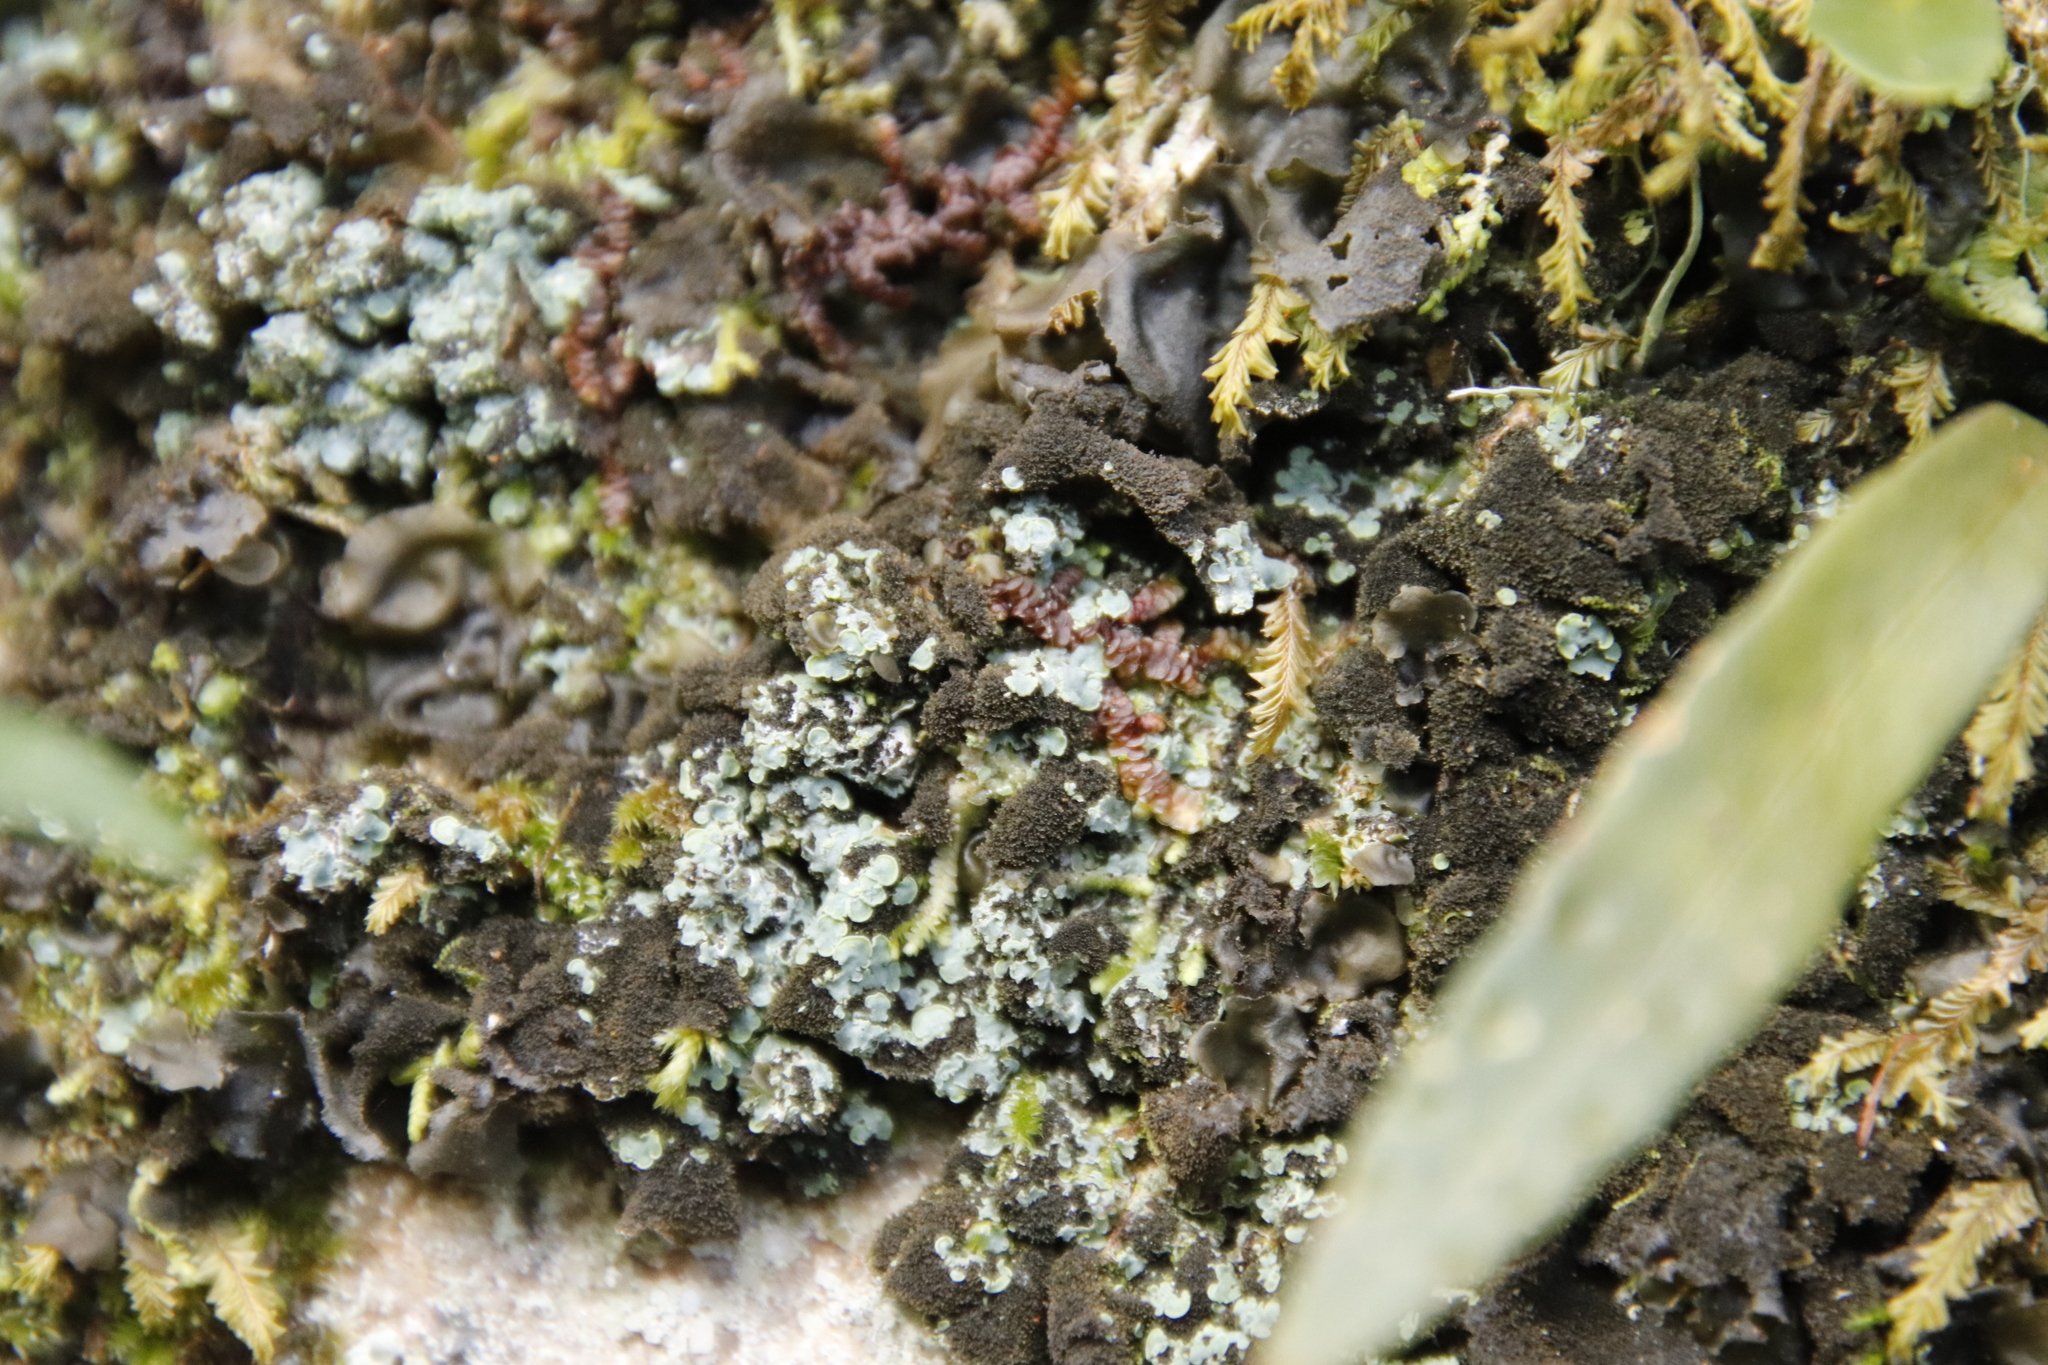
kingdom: Fungi
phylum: Ascomycota
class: Eurotiomycetes
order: Verrucariales
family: Verrucariaceae
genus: Normandina
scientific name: Normandina pulchella
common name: Elf ears lichen
